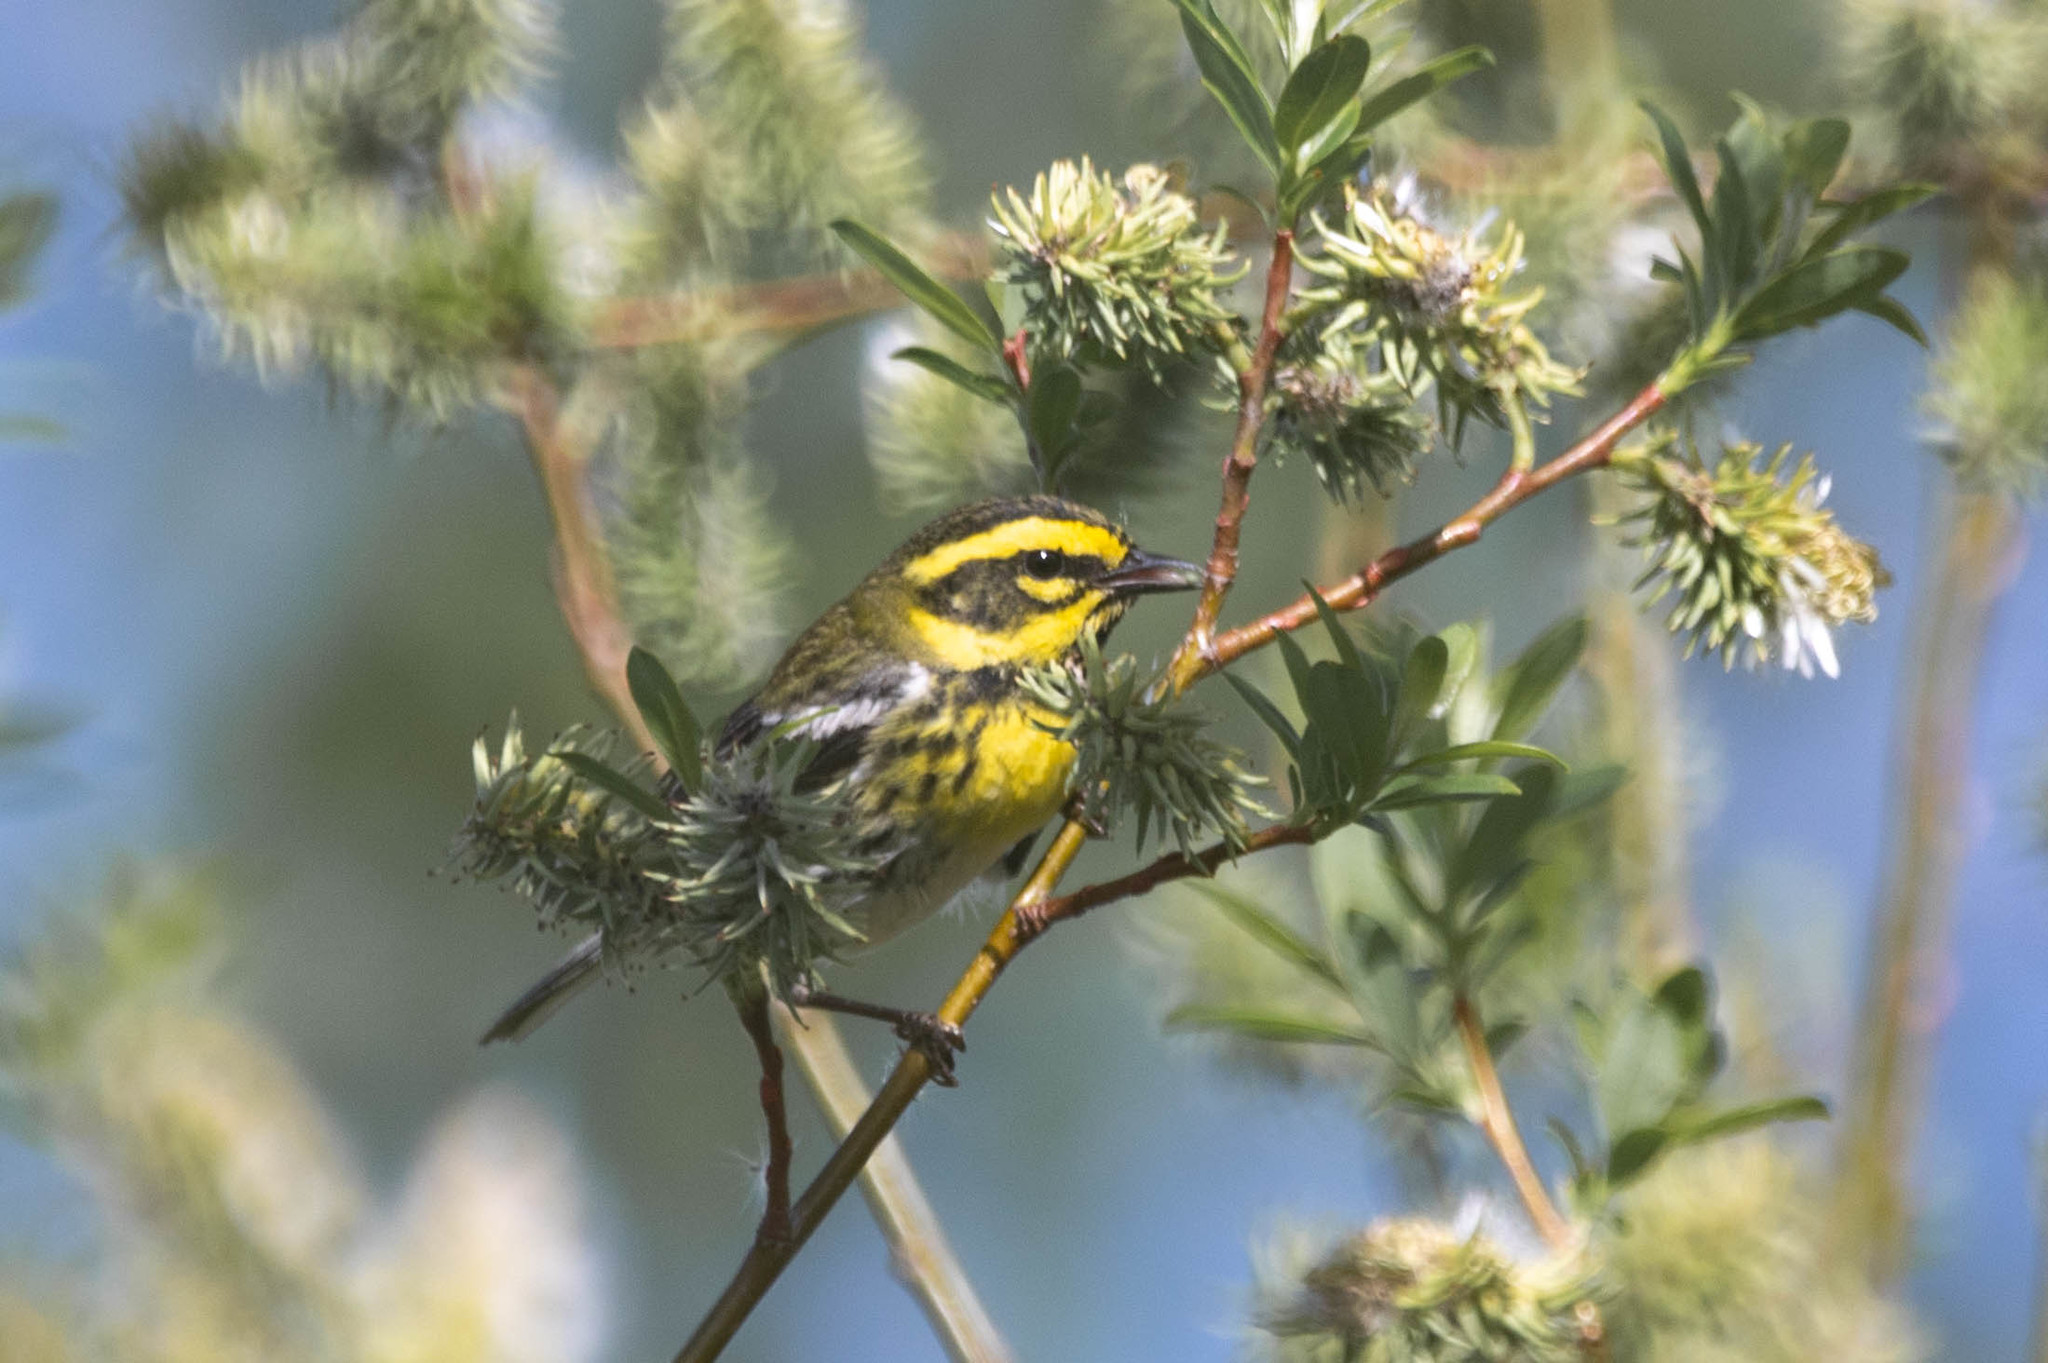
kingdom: Animalia
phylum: Chordata
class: Aves
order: Passeriformes
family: Parulidae
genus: Setophaga
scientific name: Setophaga townsendi
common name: Townsend's warbler
